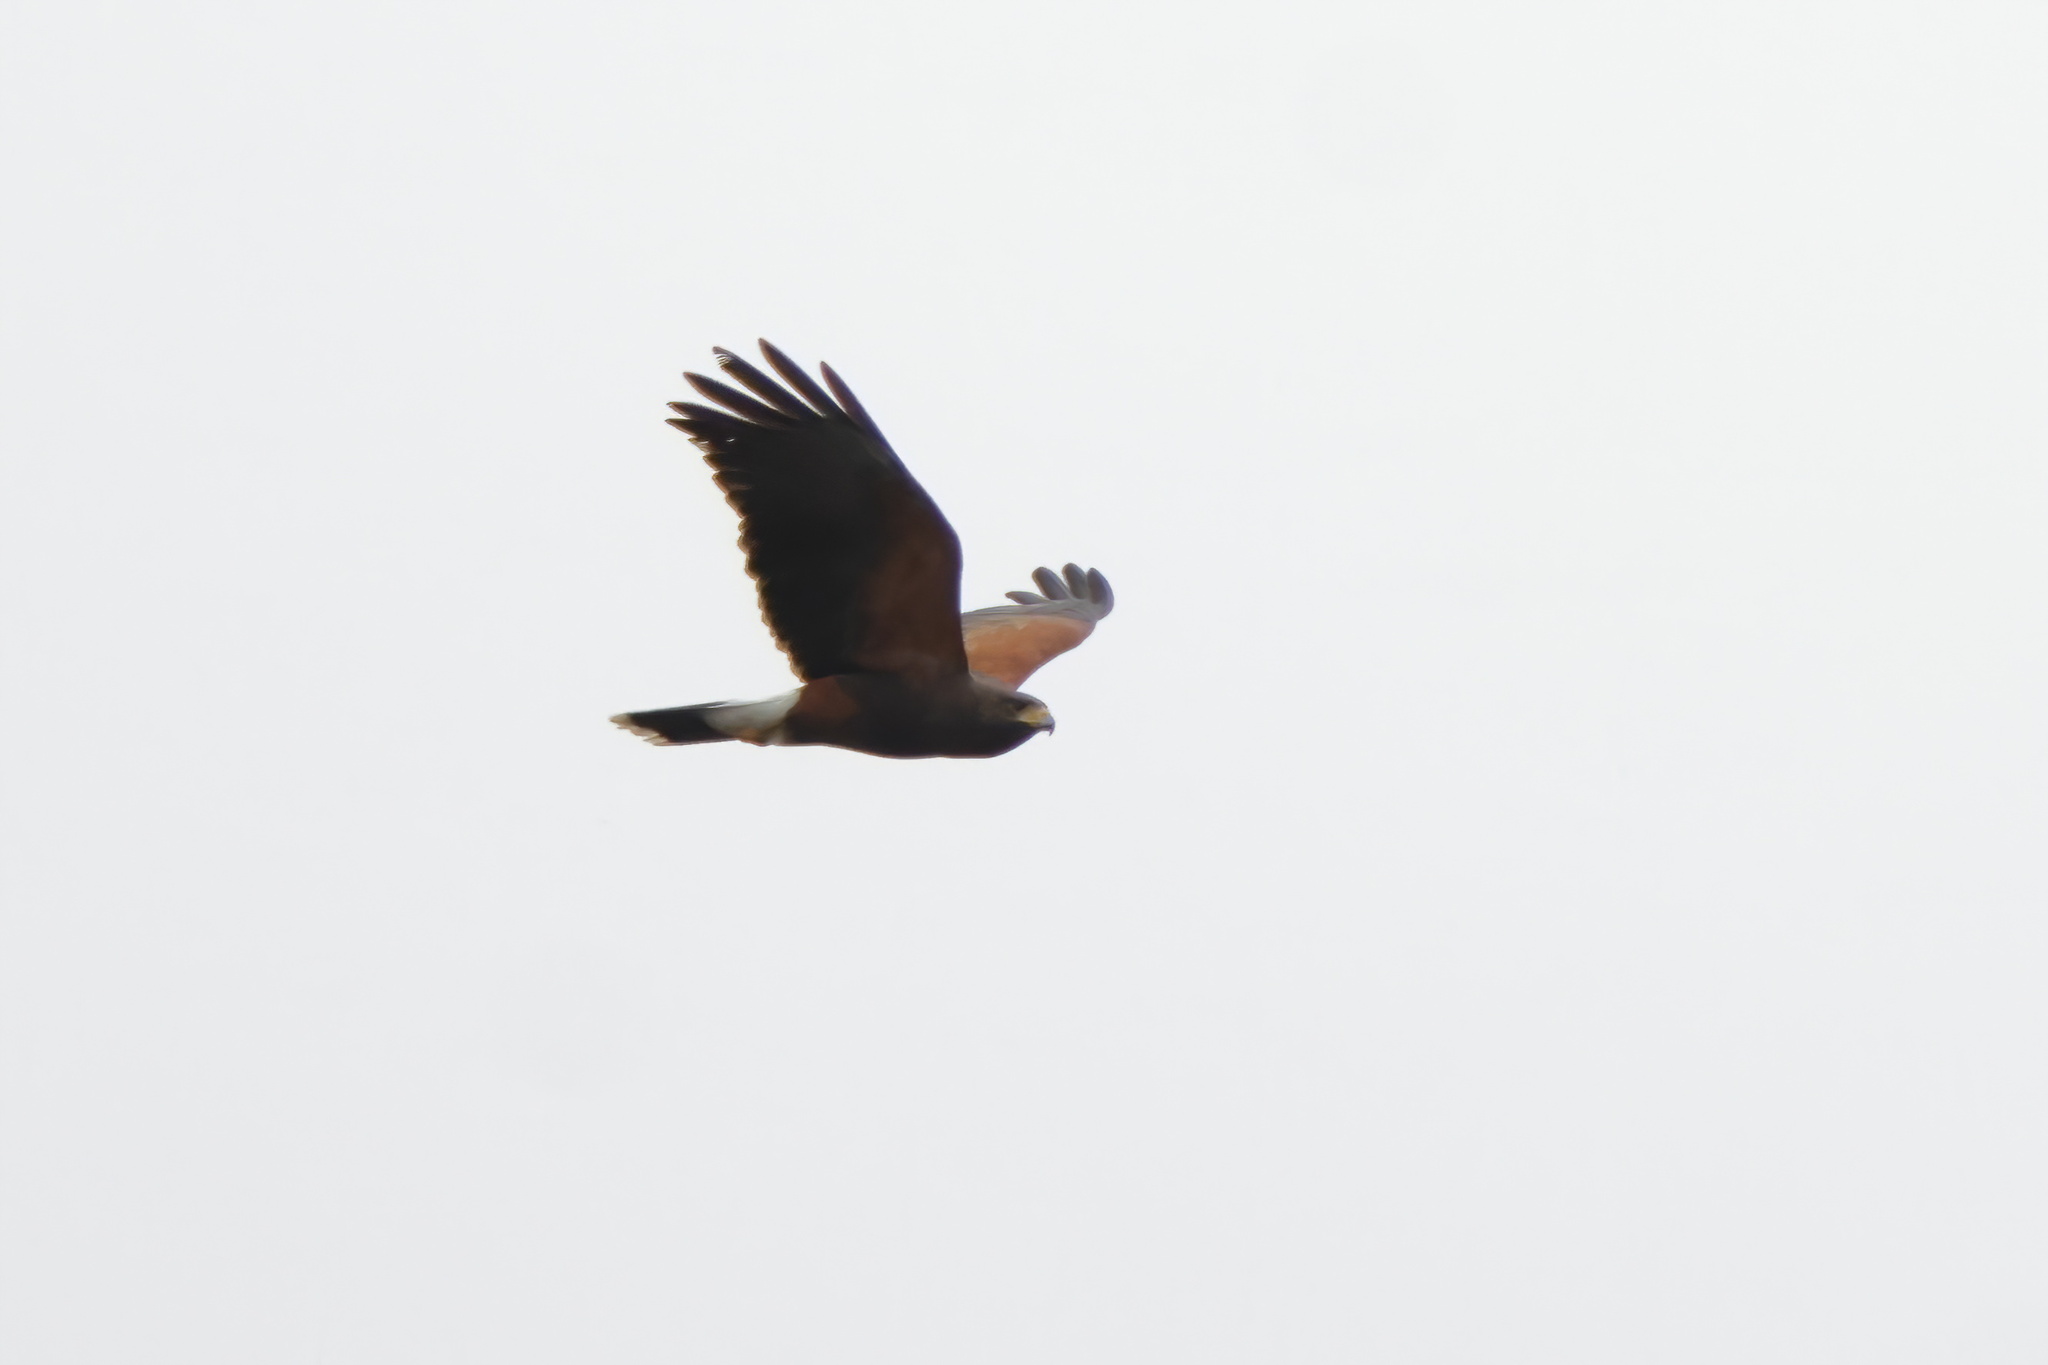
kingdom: Animalia
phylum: Chordata
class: Aves
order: Accipitriformes
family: Accipitridae
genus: Parabuteo
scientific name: Parabuteo unicinctus
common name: Harris's hawk
